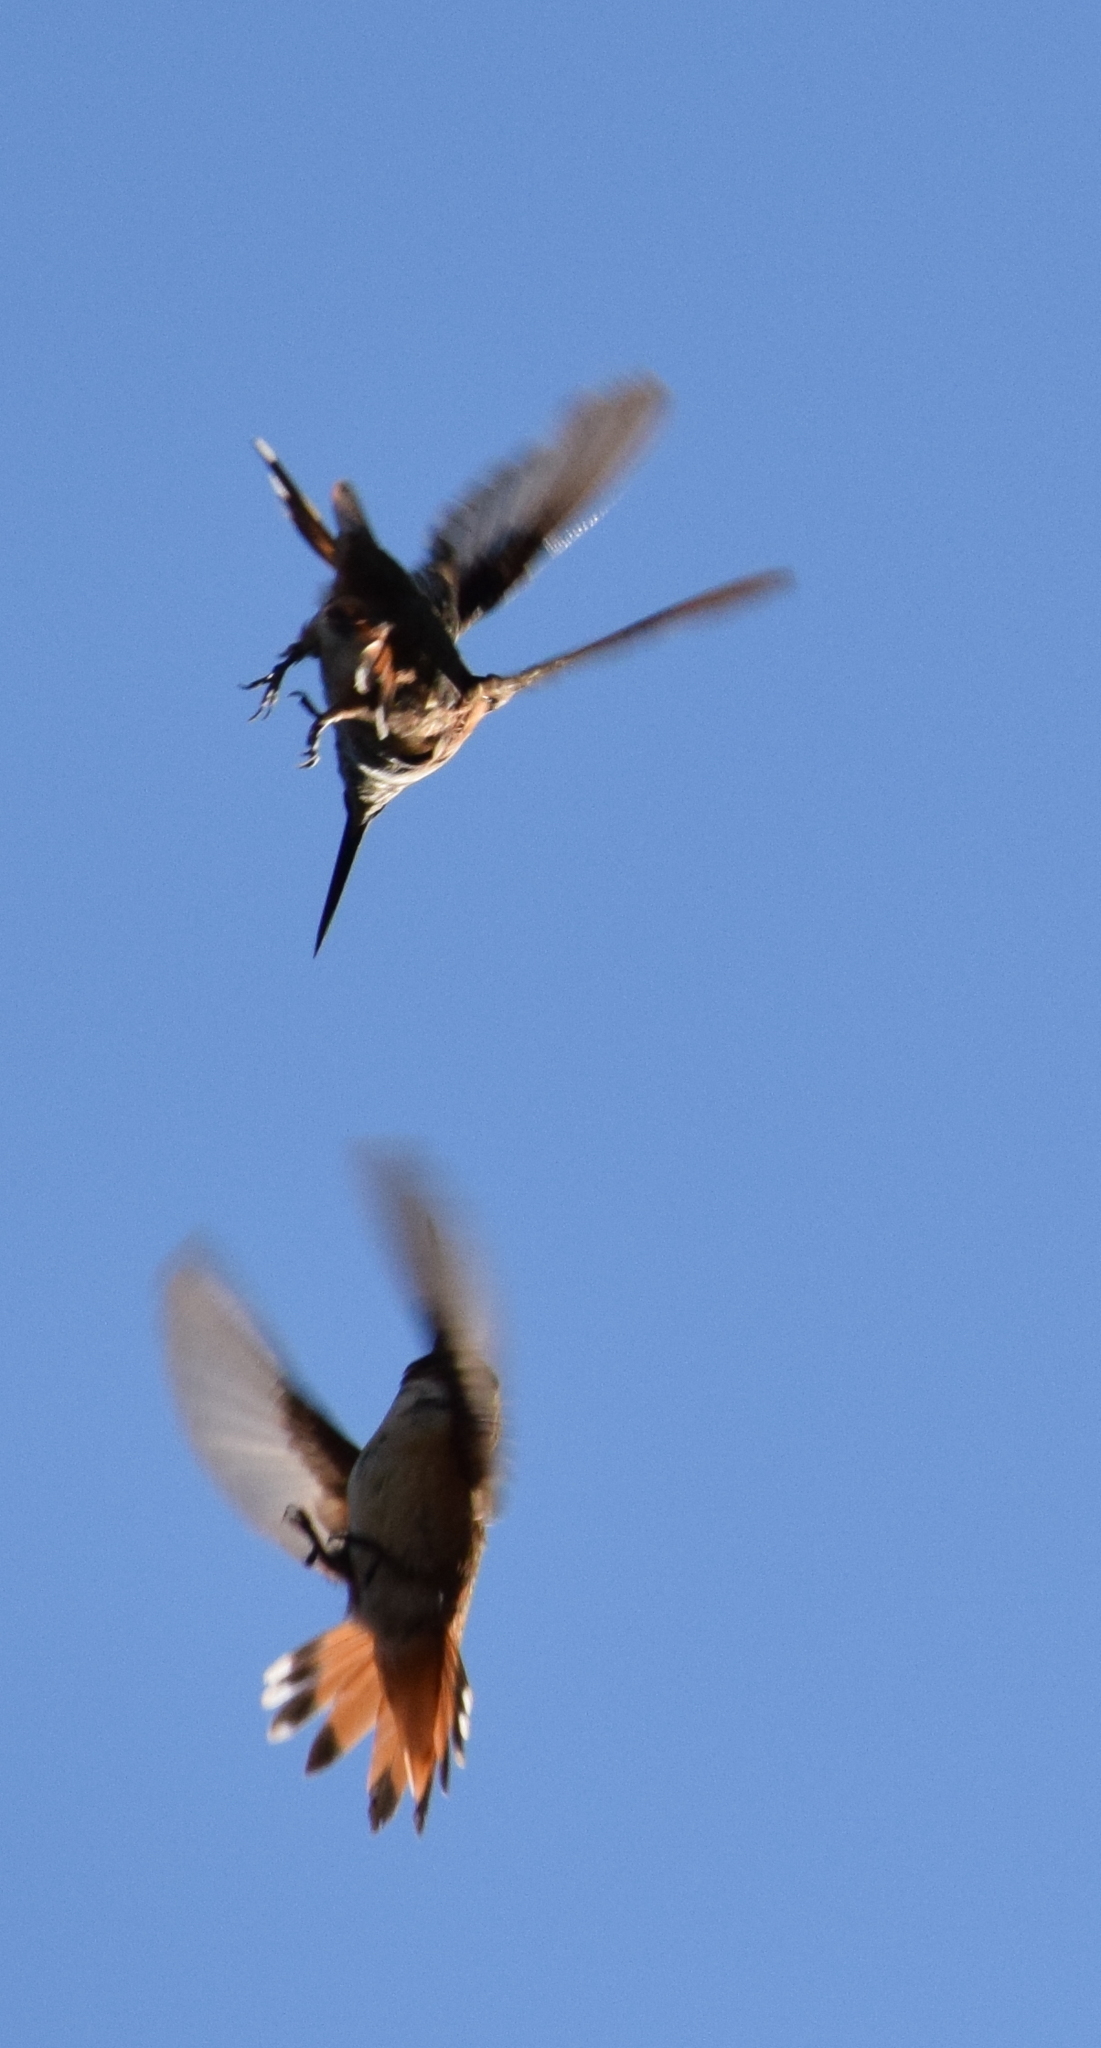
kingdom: Animalia
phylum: Chordata
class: Aves
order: Apodiformes
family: Trochilidae
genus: Selasphorus
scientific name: Selasphorus sasin
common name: Allen's hummingbird
